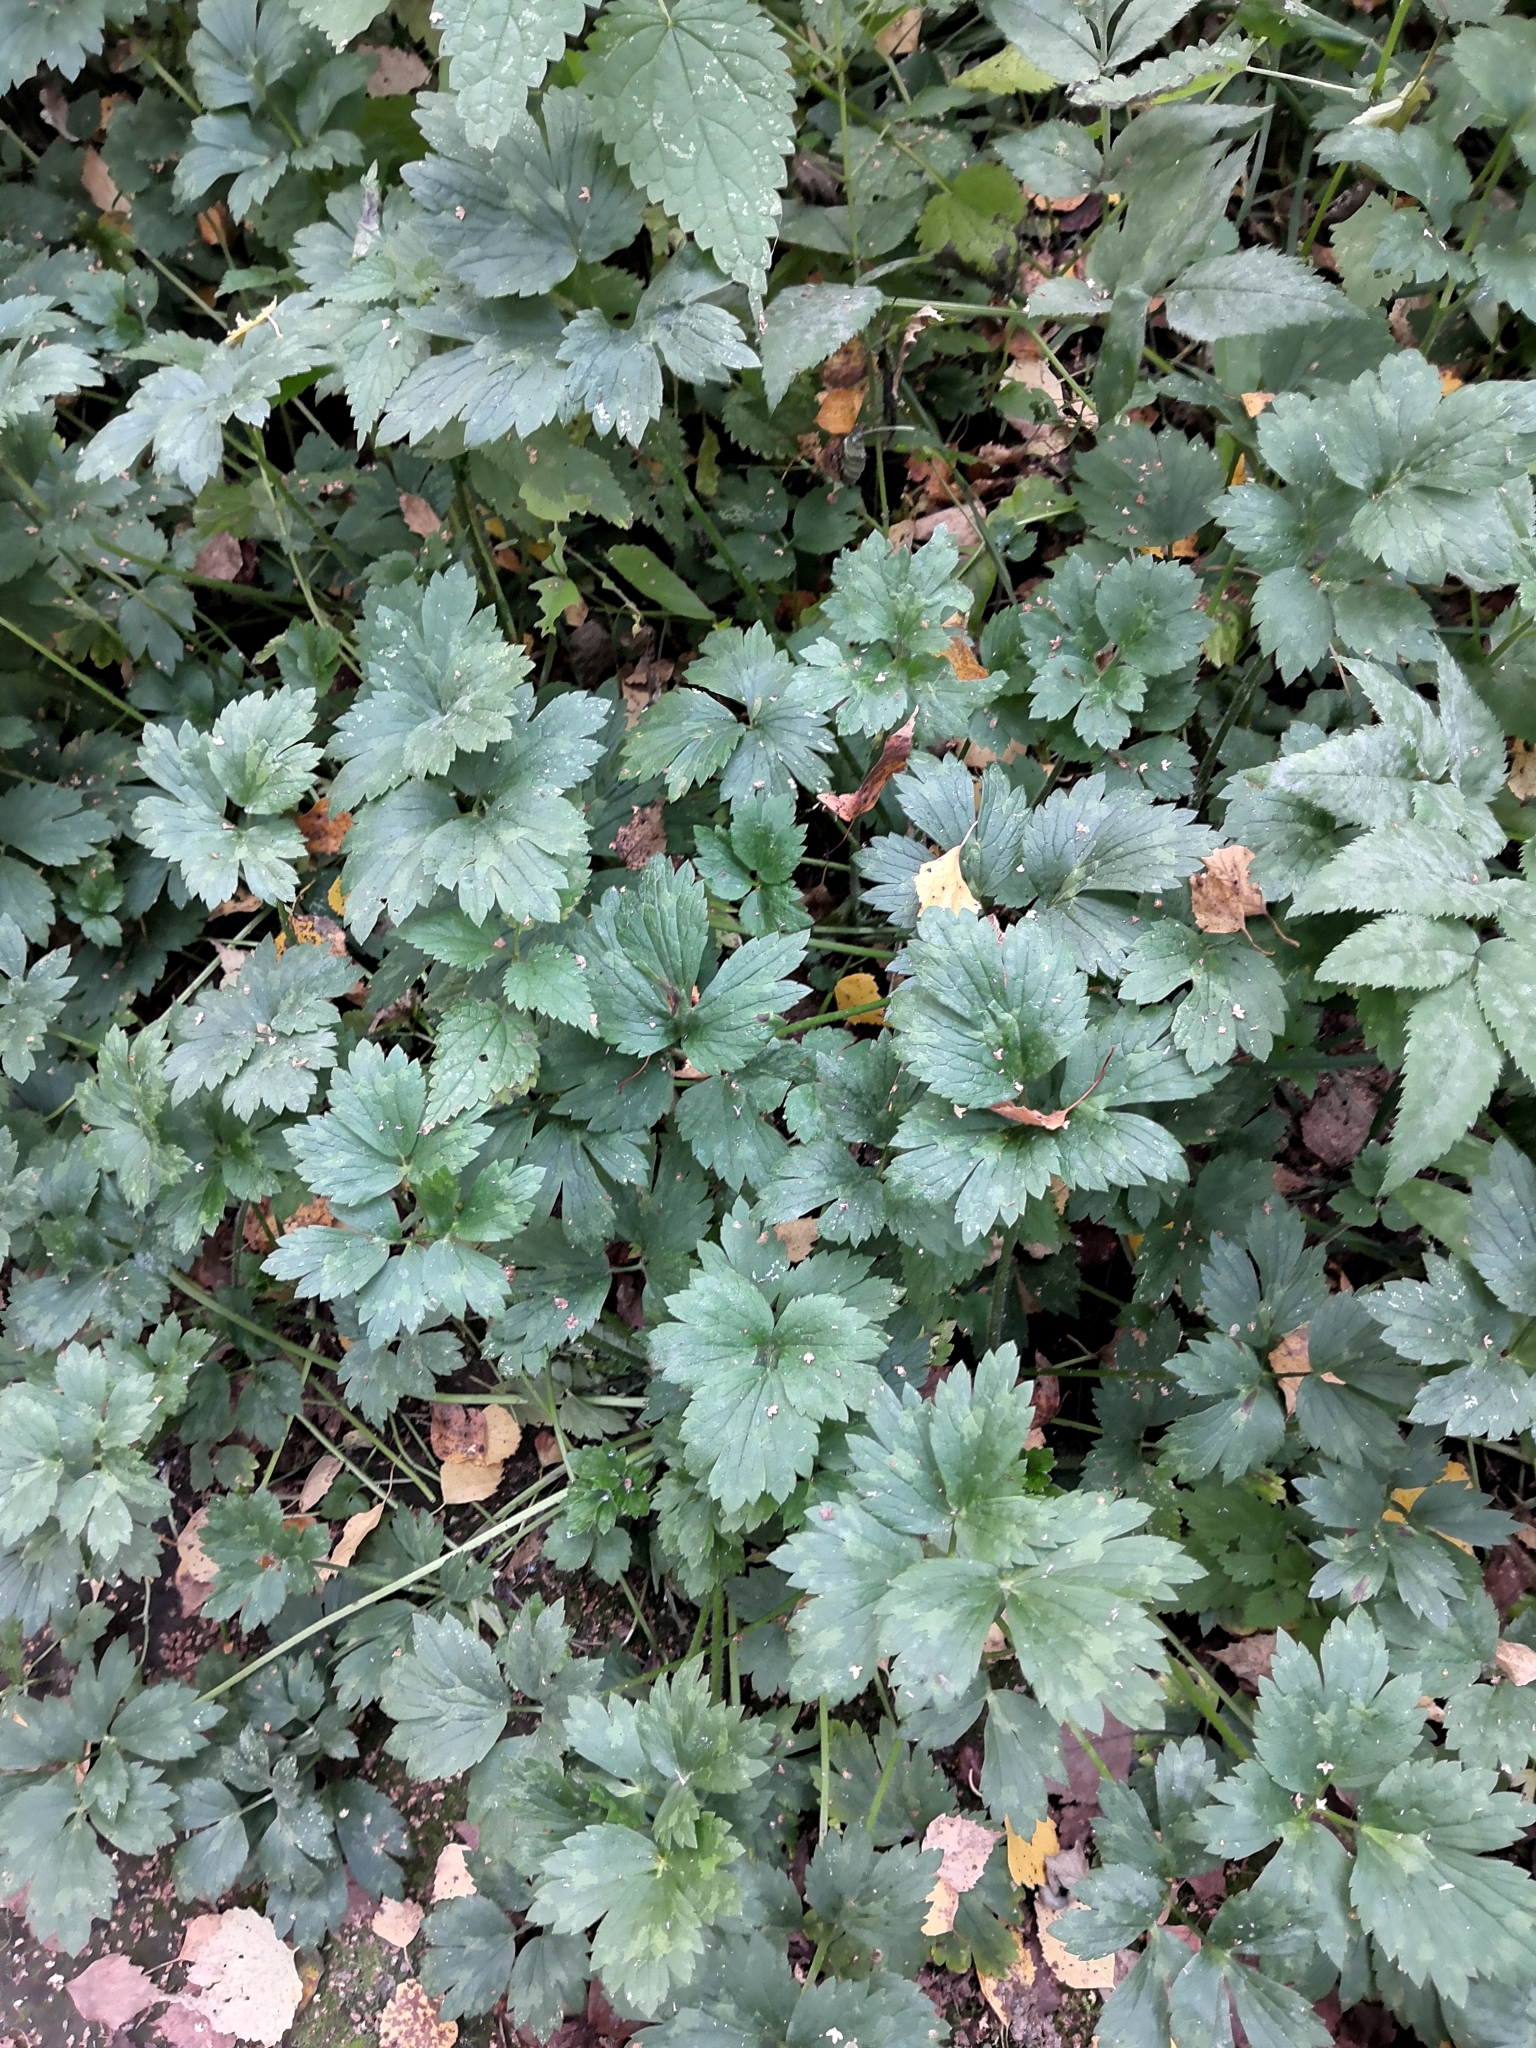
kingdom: Plantae
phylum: Tracheophyta
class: Magnoliopsida
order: Ranunculales
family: Ranunculaceae
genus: Ranunculus
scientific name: Ranunculus repens
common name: Creeping buttercup
